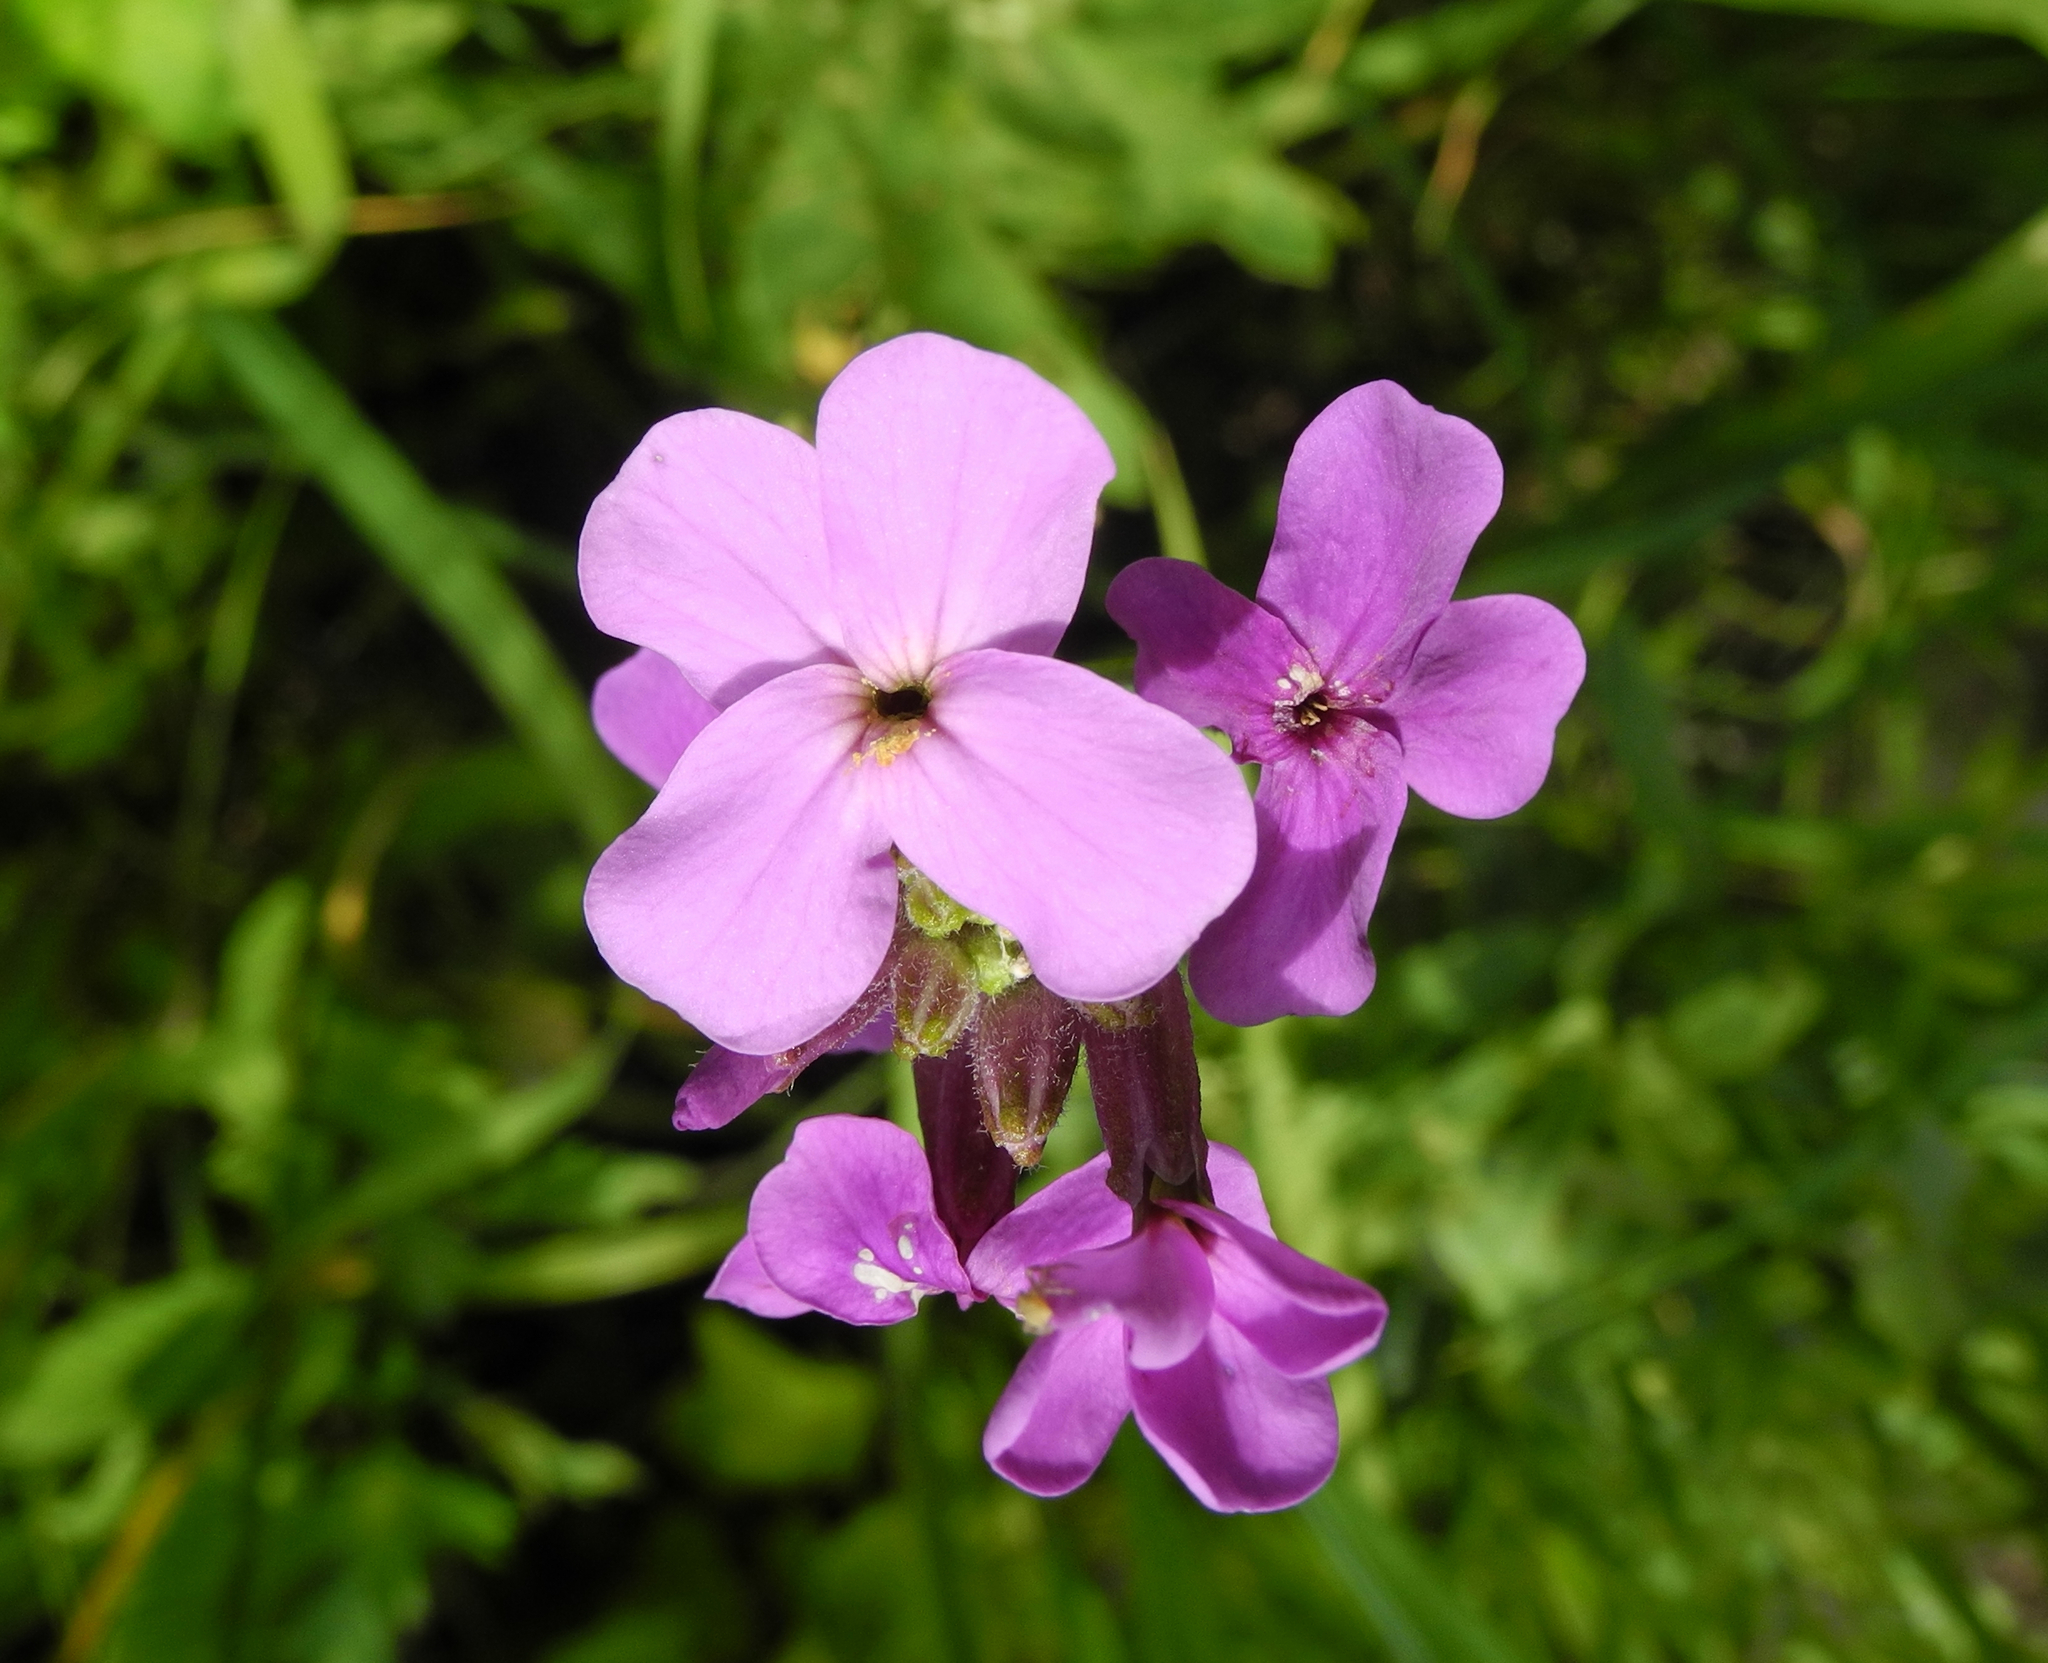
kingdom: Plantae
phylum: Tracheophyta
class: Magnoliopsida
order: Brassicales
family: Brassicaceae
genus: Hesperis
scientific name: Hesperis
